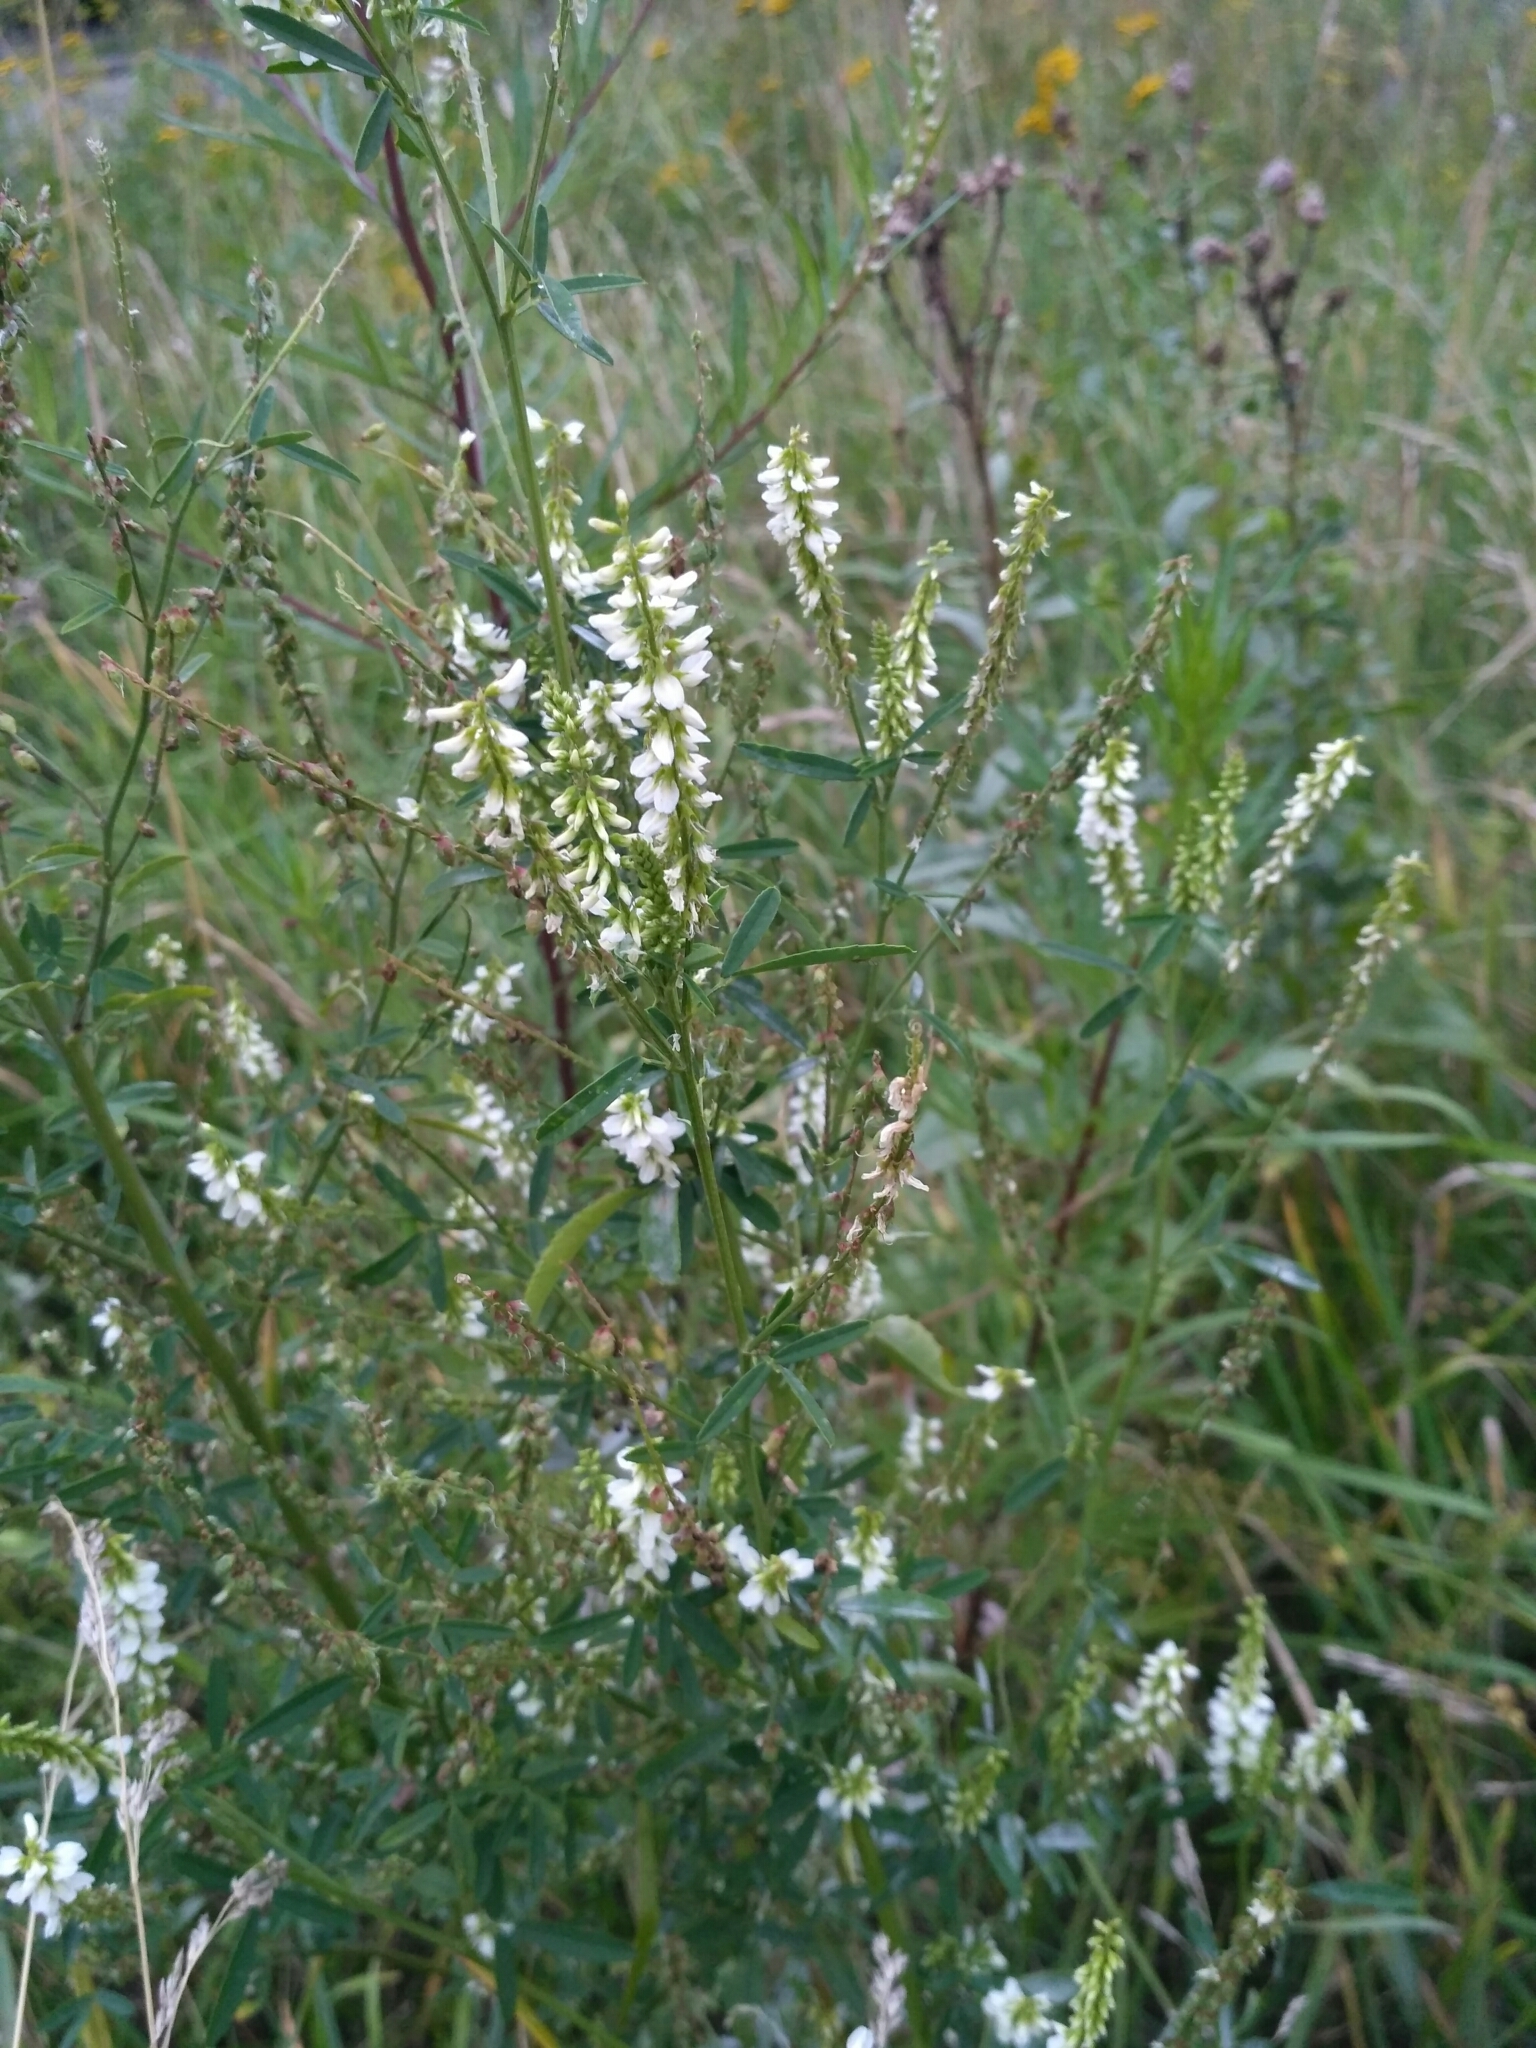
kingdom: Plantae
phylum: Tracheophyta
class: Magnoliopsida
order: Fabales
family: Fabaceae
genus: Melilotus
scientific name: Melilotus albus
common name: White melilot
